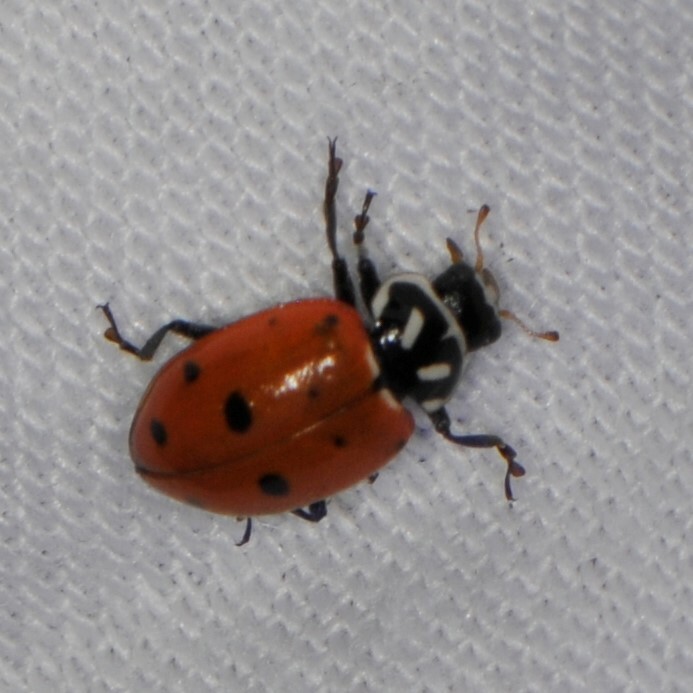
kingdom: Animalia
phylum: Arthropoda
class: Insecta
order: Coleoptera
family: Coccinellidae
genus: Hippodamia
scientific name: Hippodamia convergens
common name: Convergent lady beetle
